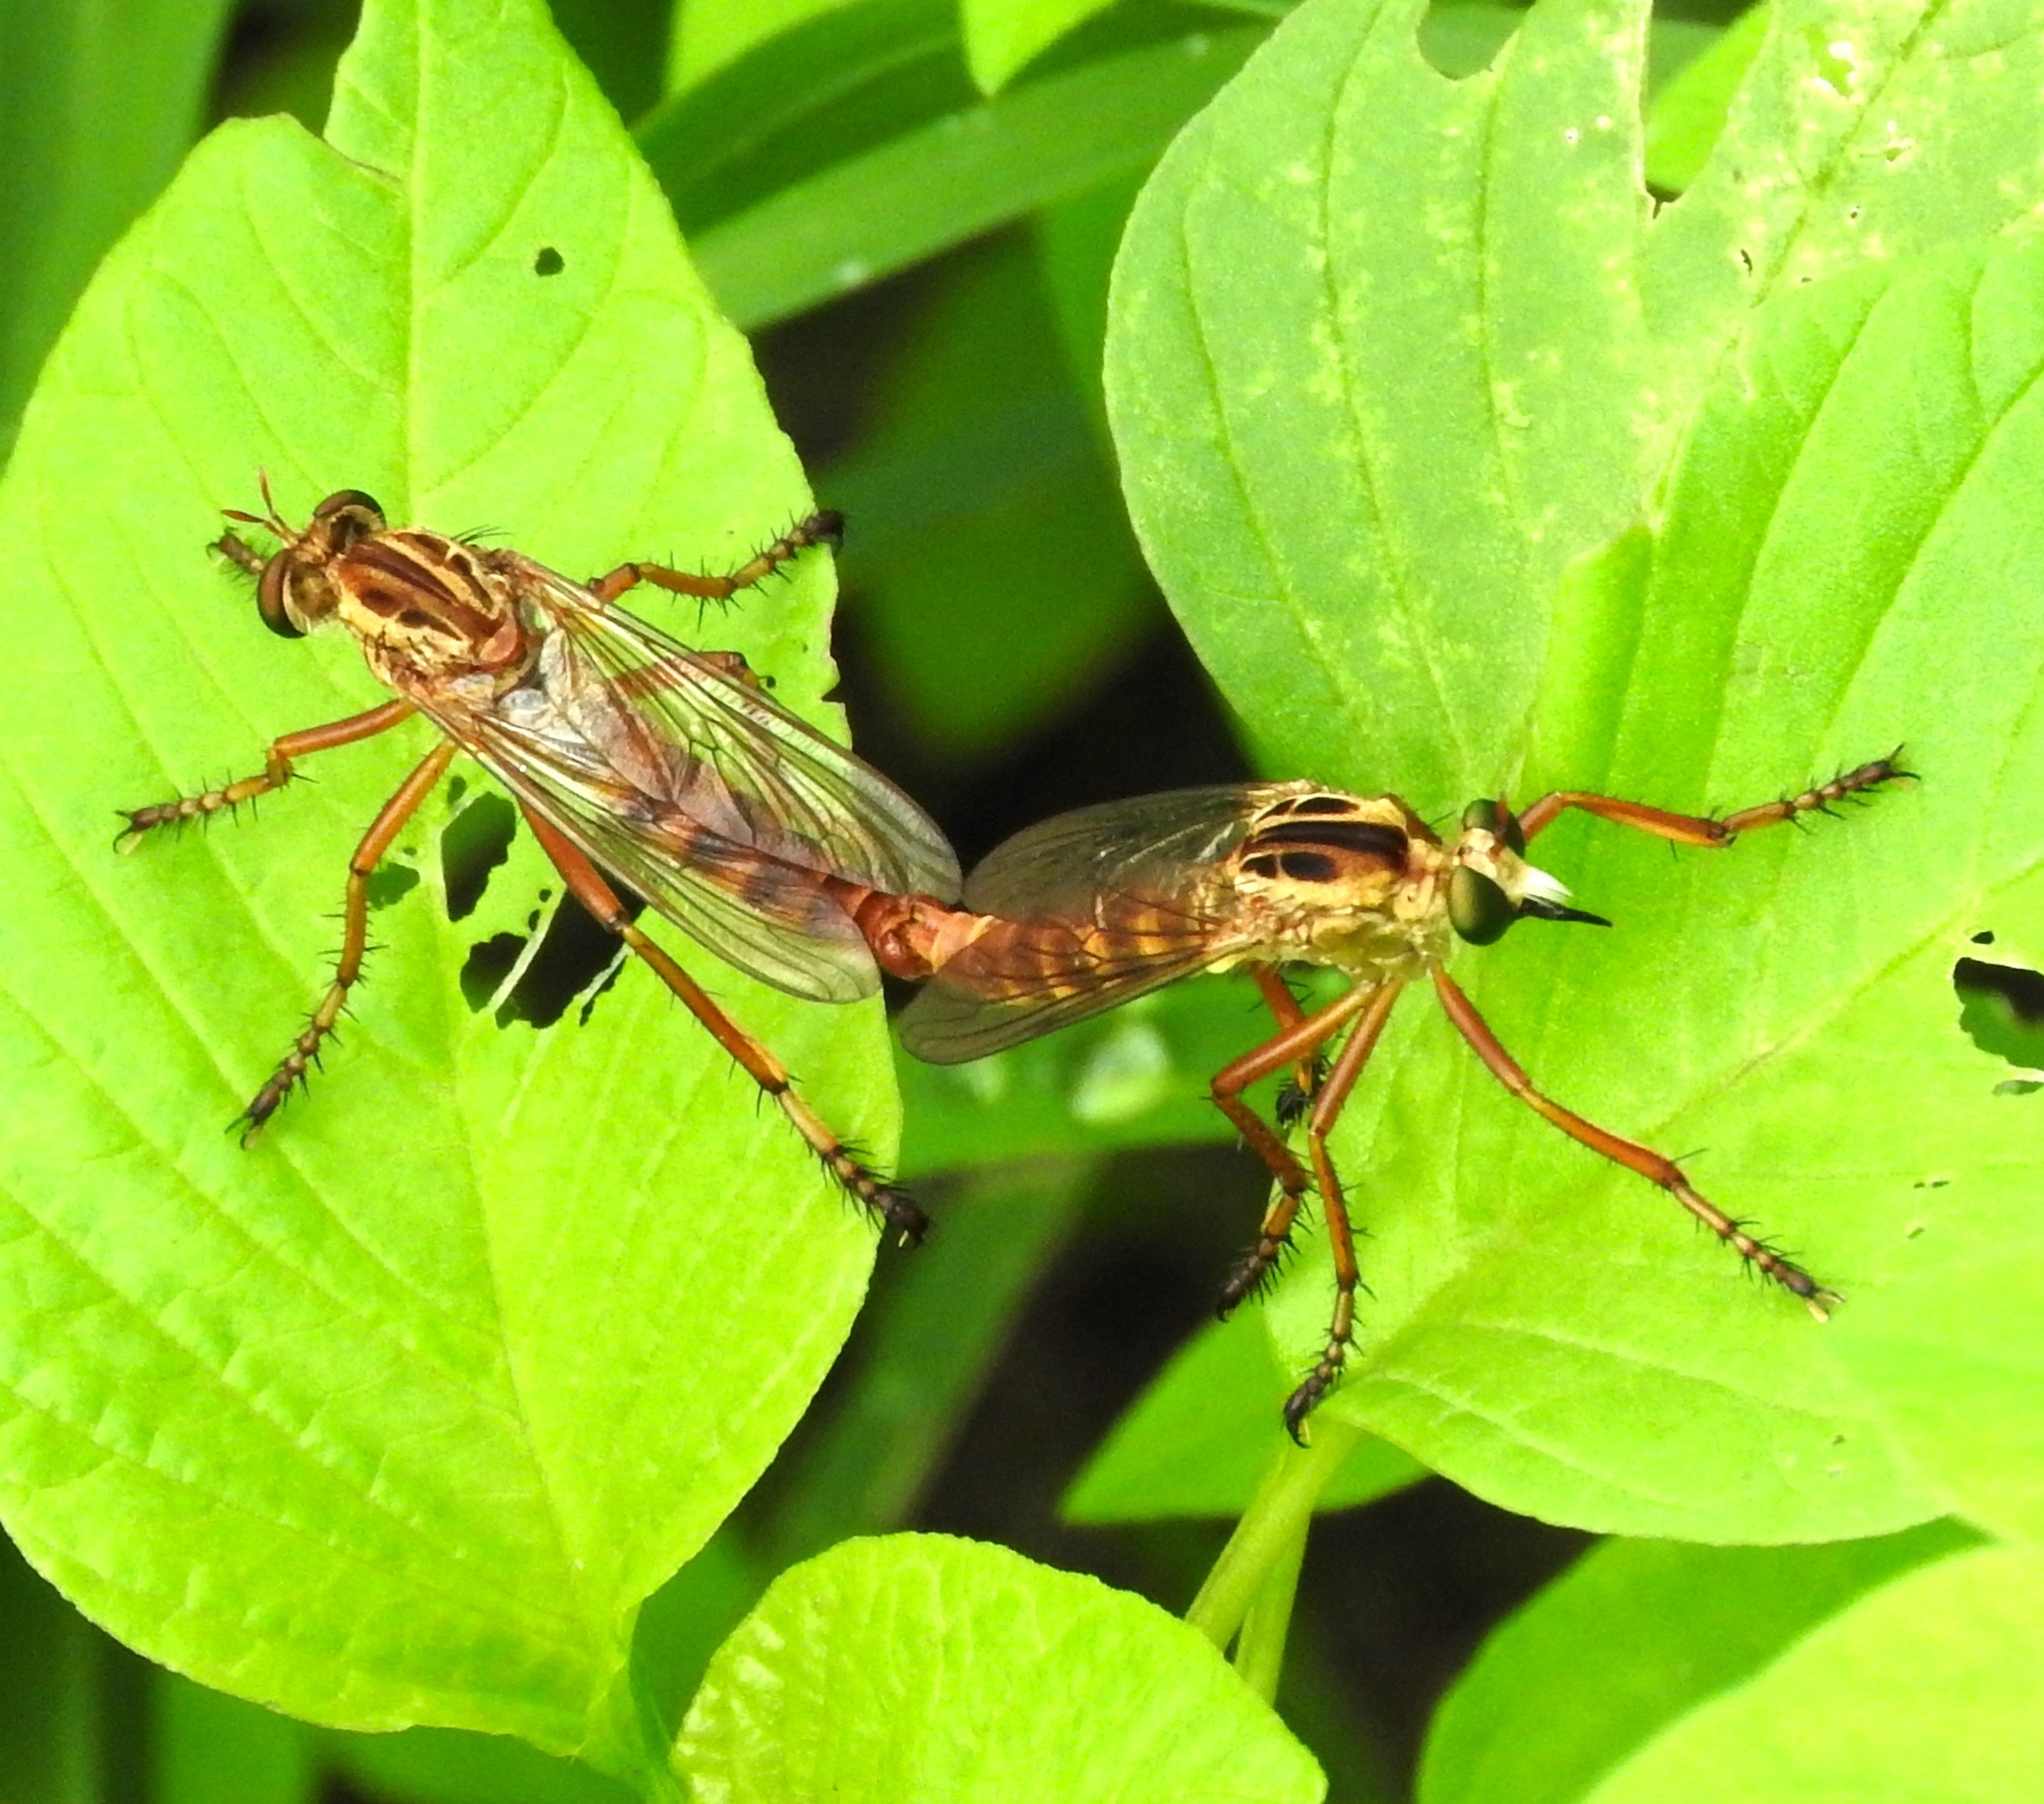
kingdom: Animalia
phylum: Arthropoda
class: Insecta
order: Diptera
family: Asilidae
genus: Diogmites
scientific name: Diogmites
